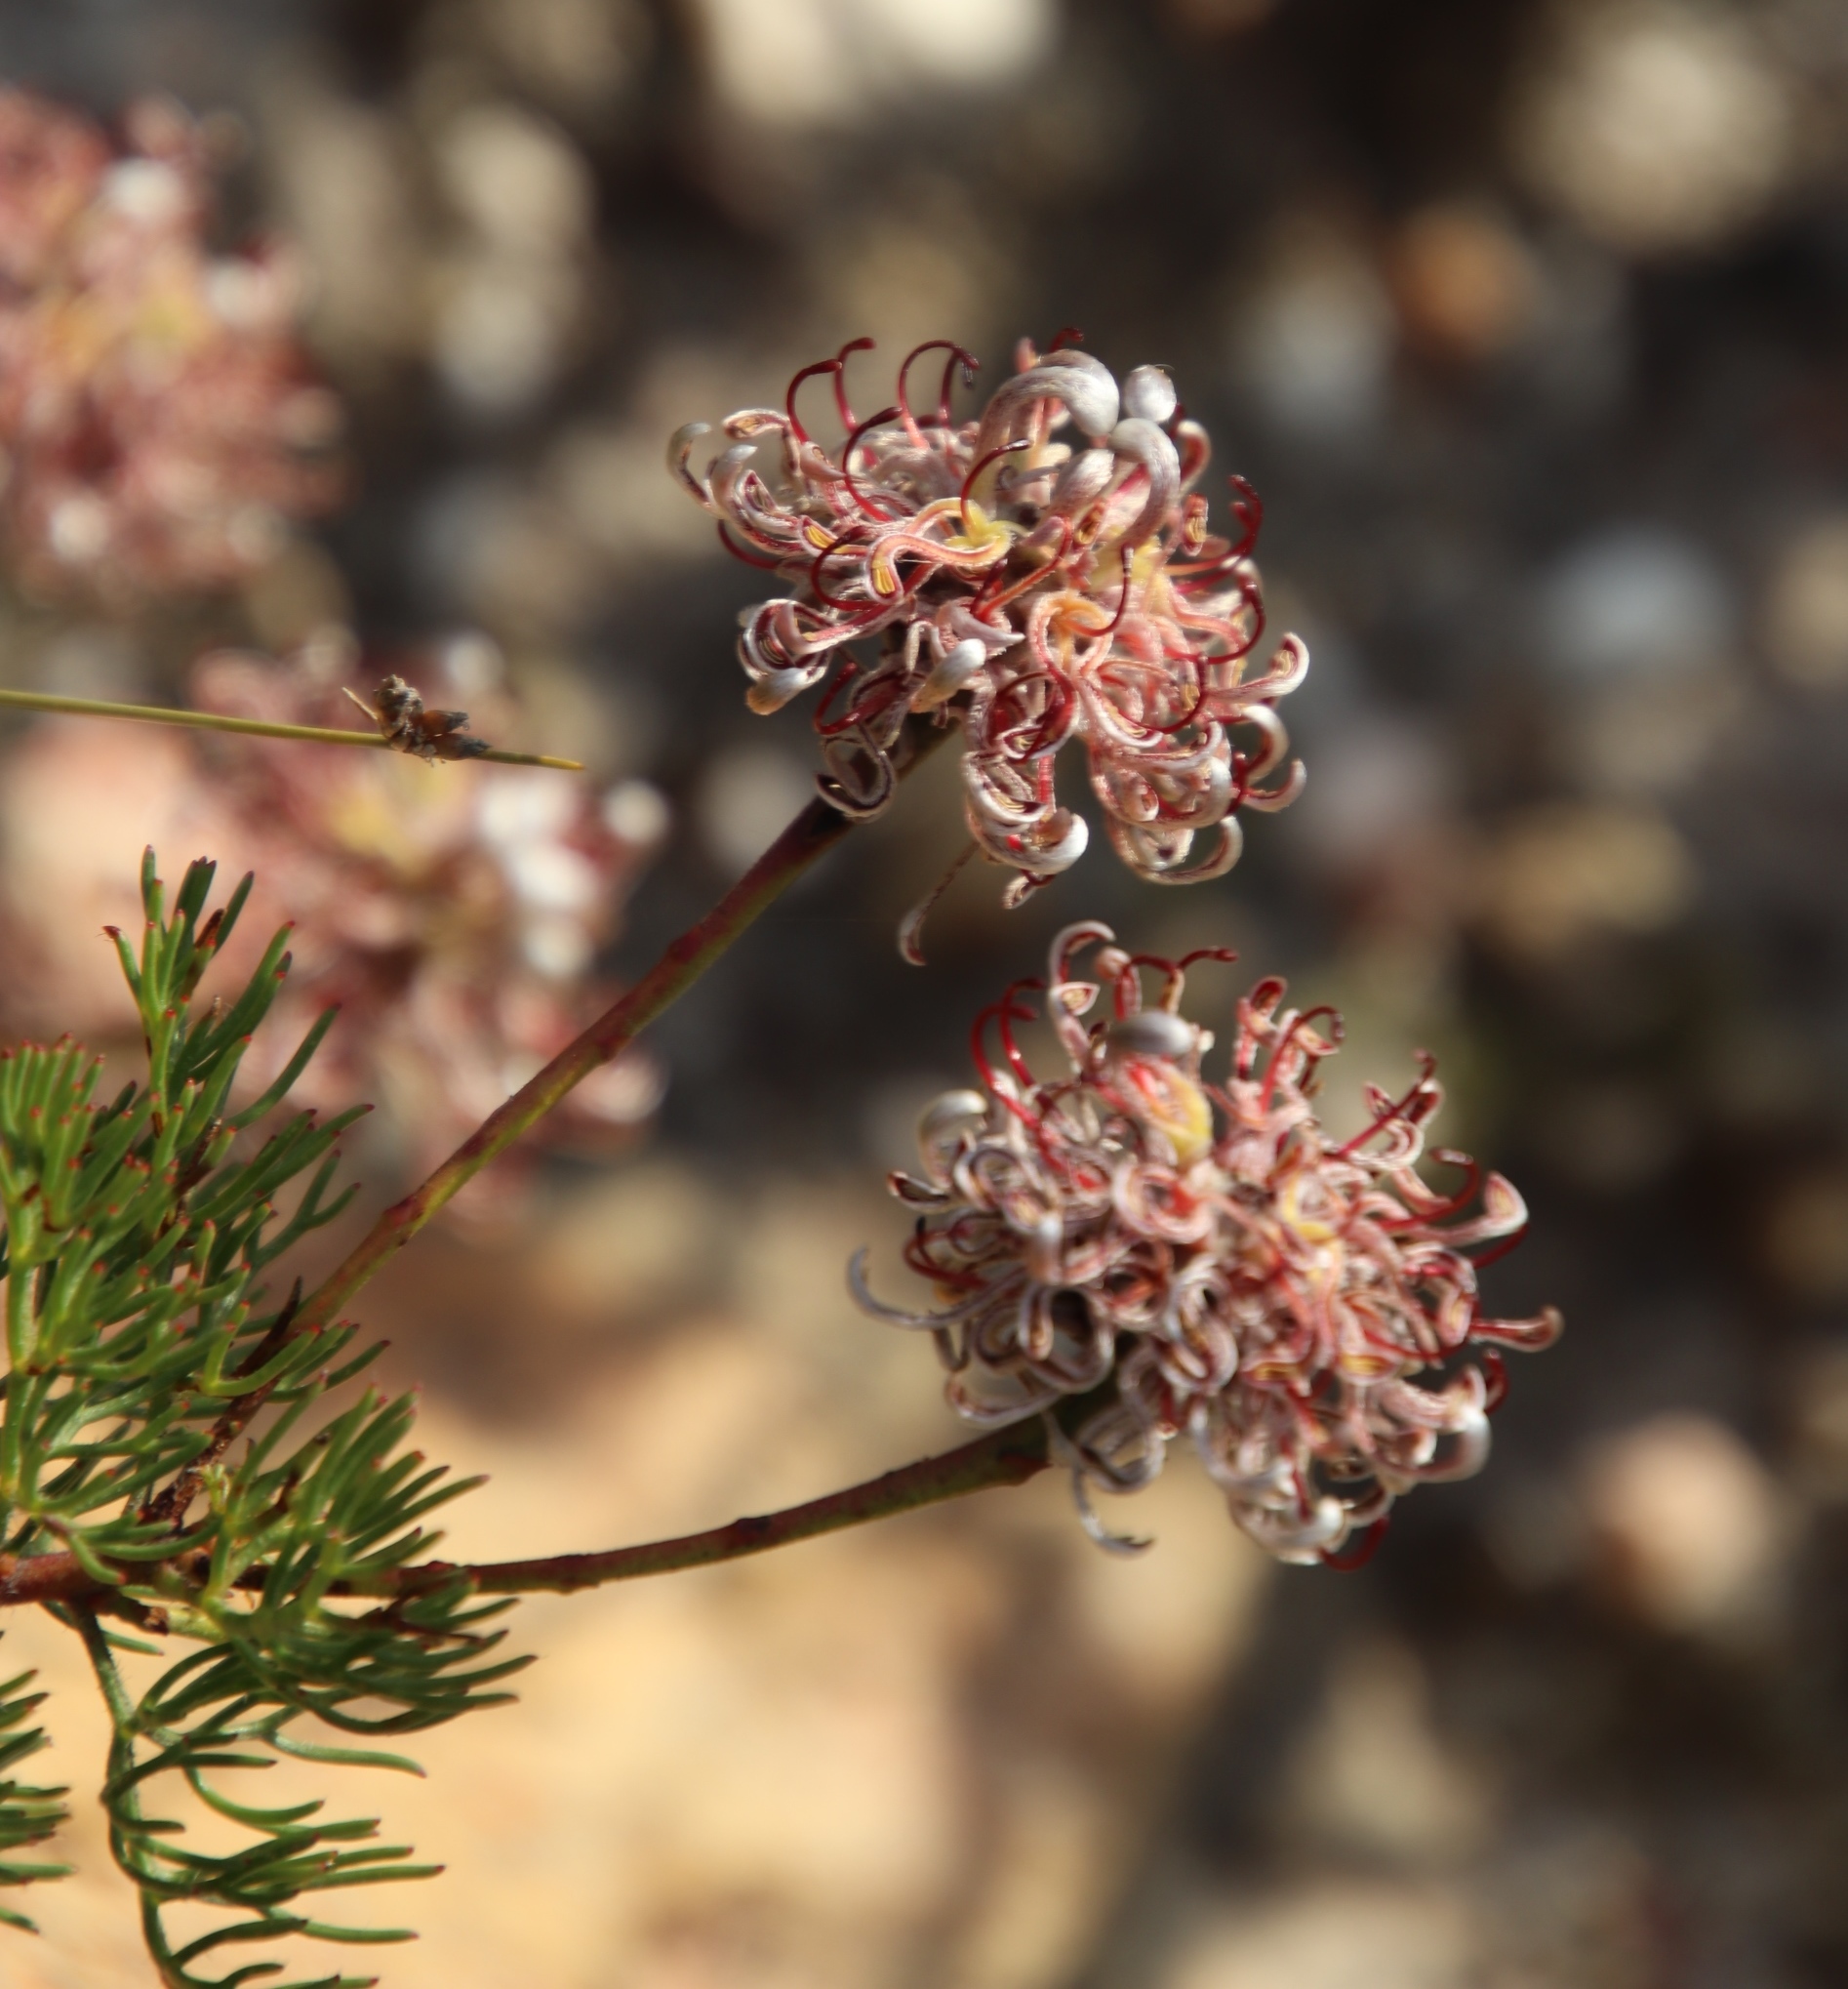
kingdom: Plantae
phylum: Tracheophyta
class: Magnoliopsida
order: Proteales
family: Proteaceae
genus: Serruria
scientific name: Serruria gremialis
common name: Riviersonderend spiderhead
